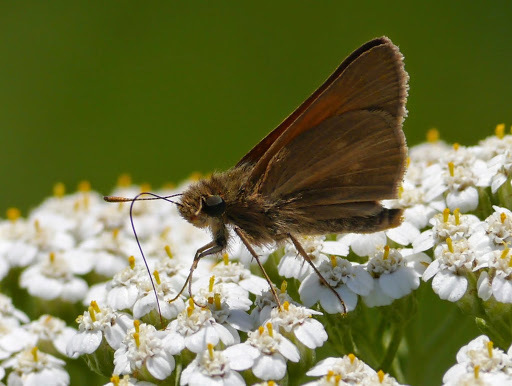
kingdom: Animalia
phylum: Arthropoda
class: Insecta
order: Lepidoptera
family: Hesperiidae
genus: Poanes
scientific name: Poanes aaroni
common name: Aaron's skipper
